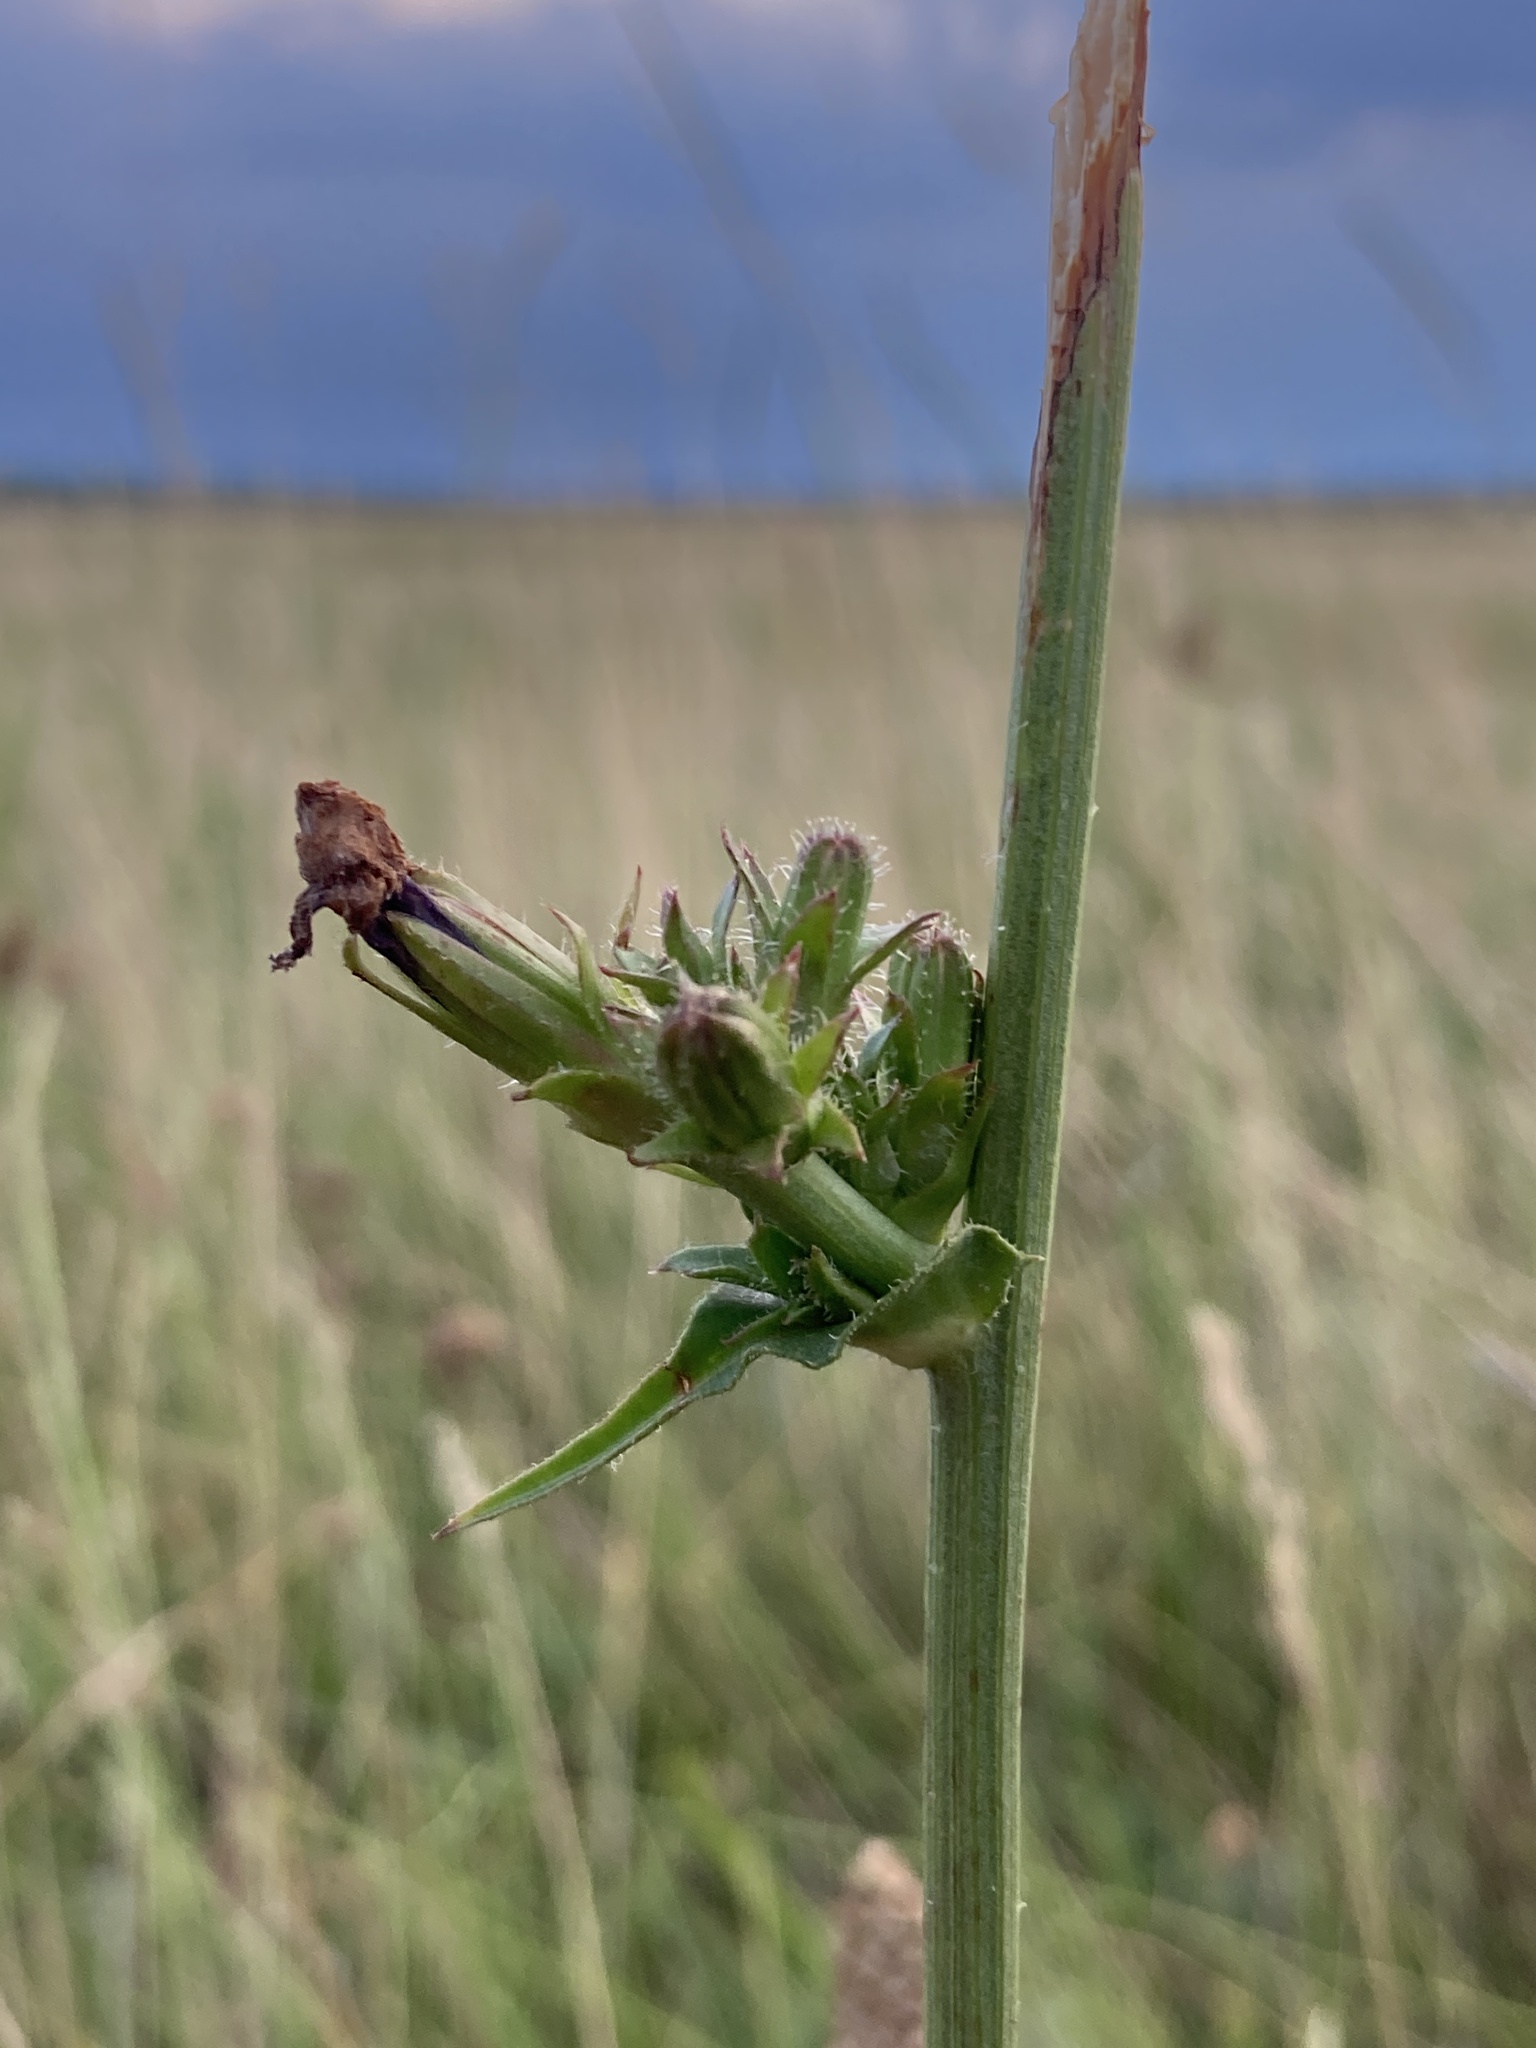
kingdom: Plantae
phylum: Tracheophyta
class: Magnoliopsida
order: Asterales
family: Asteraceae
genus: Cichorium
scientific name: Cichorium intybus
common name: Chicory
